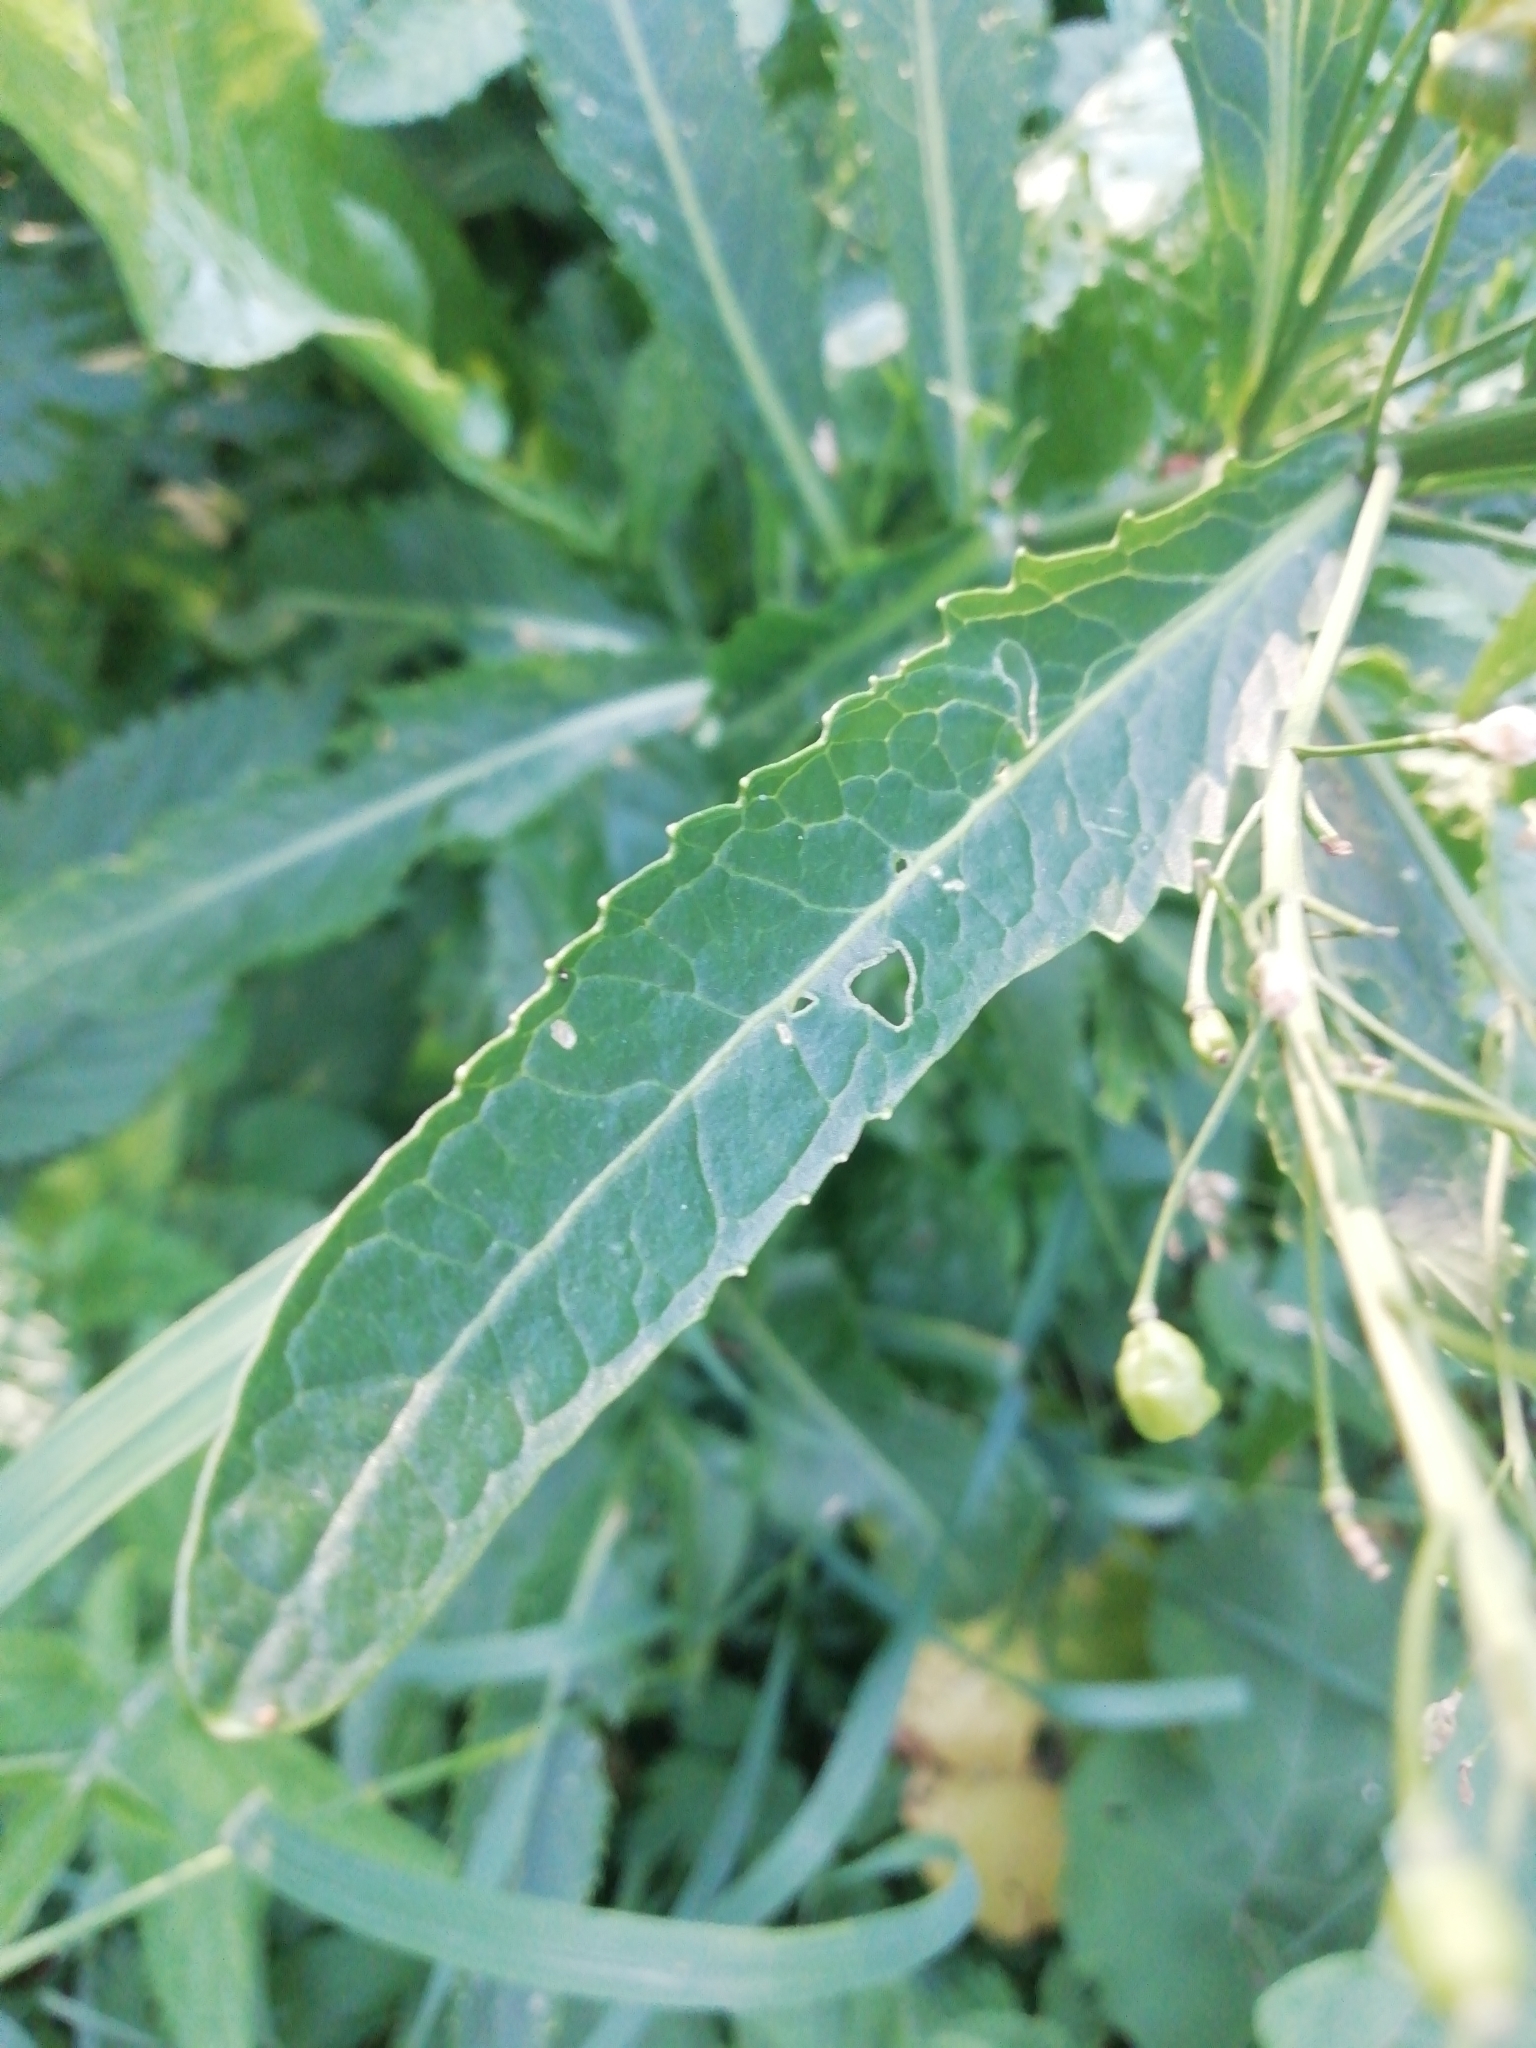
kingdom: Plantae
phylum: Tracheophyta
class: Magnoliopsida
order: Brassicales
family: Brassicaceae
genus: Armoracia
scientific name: Armoracia rusticana
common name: Horseradish
